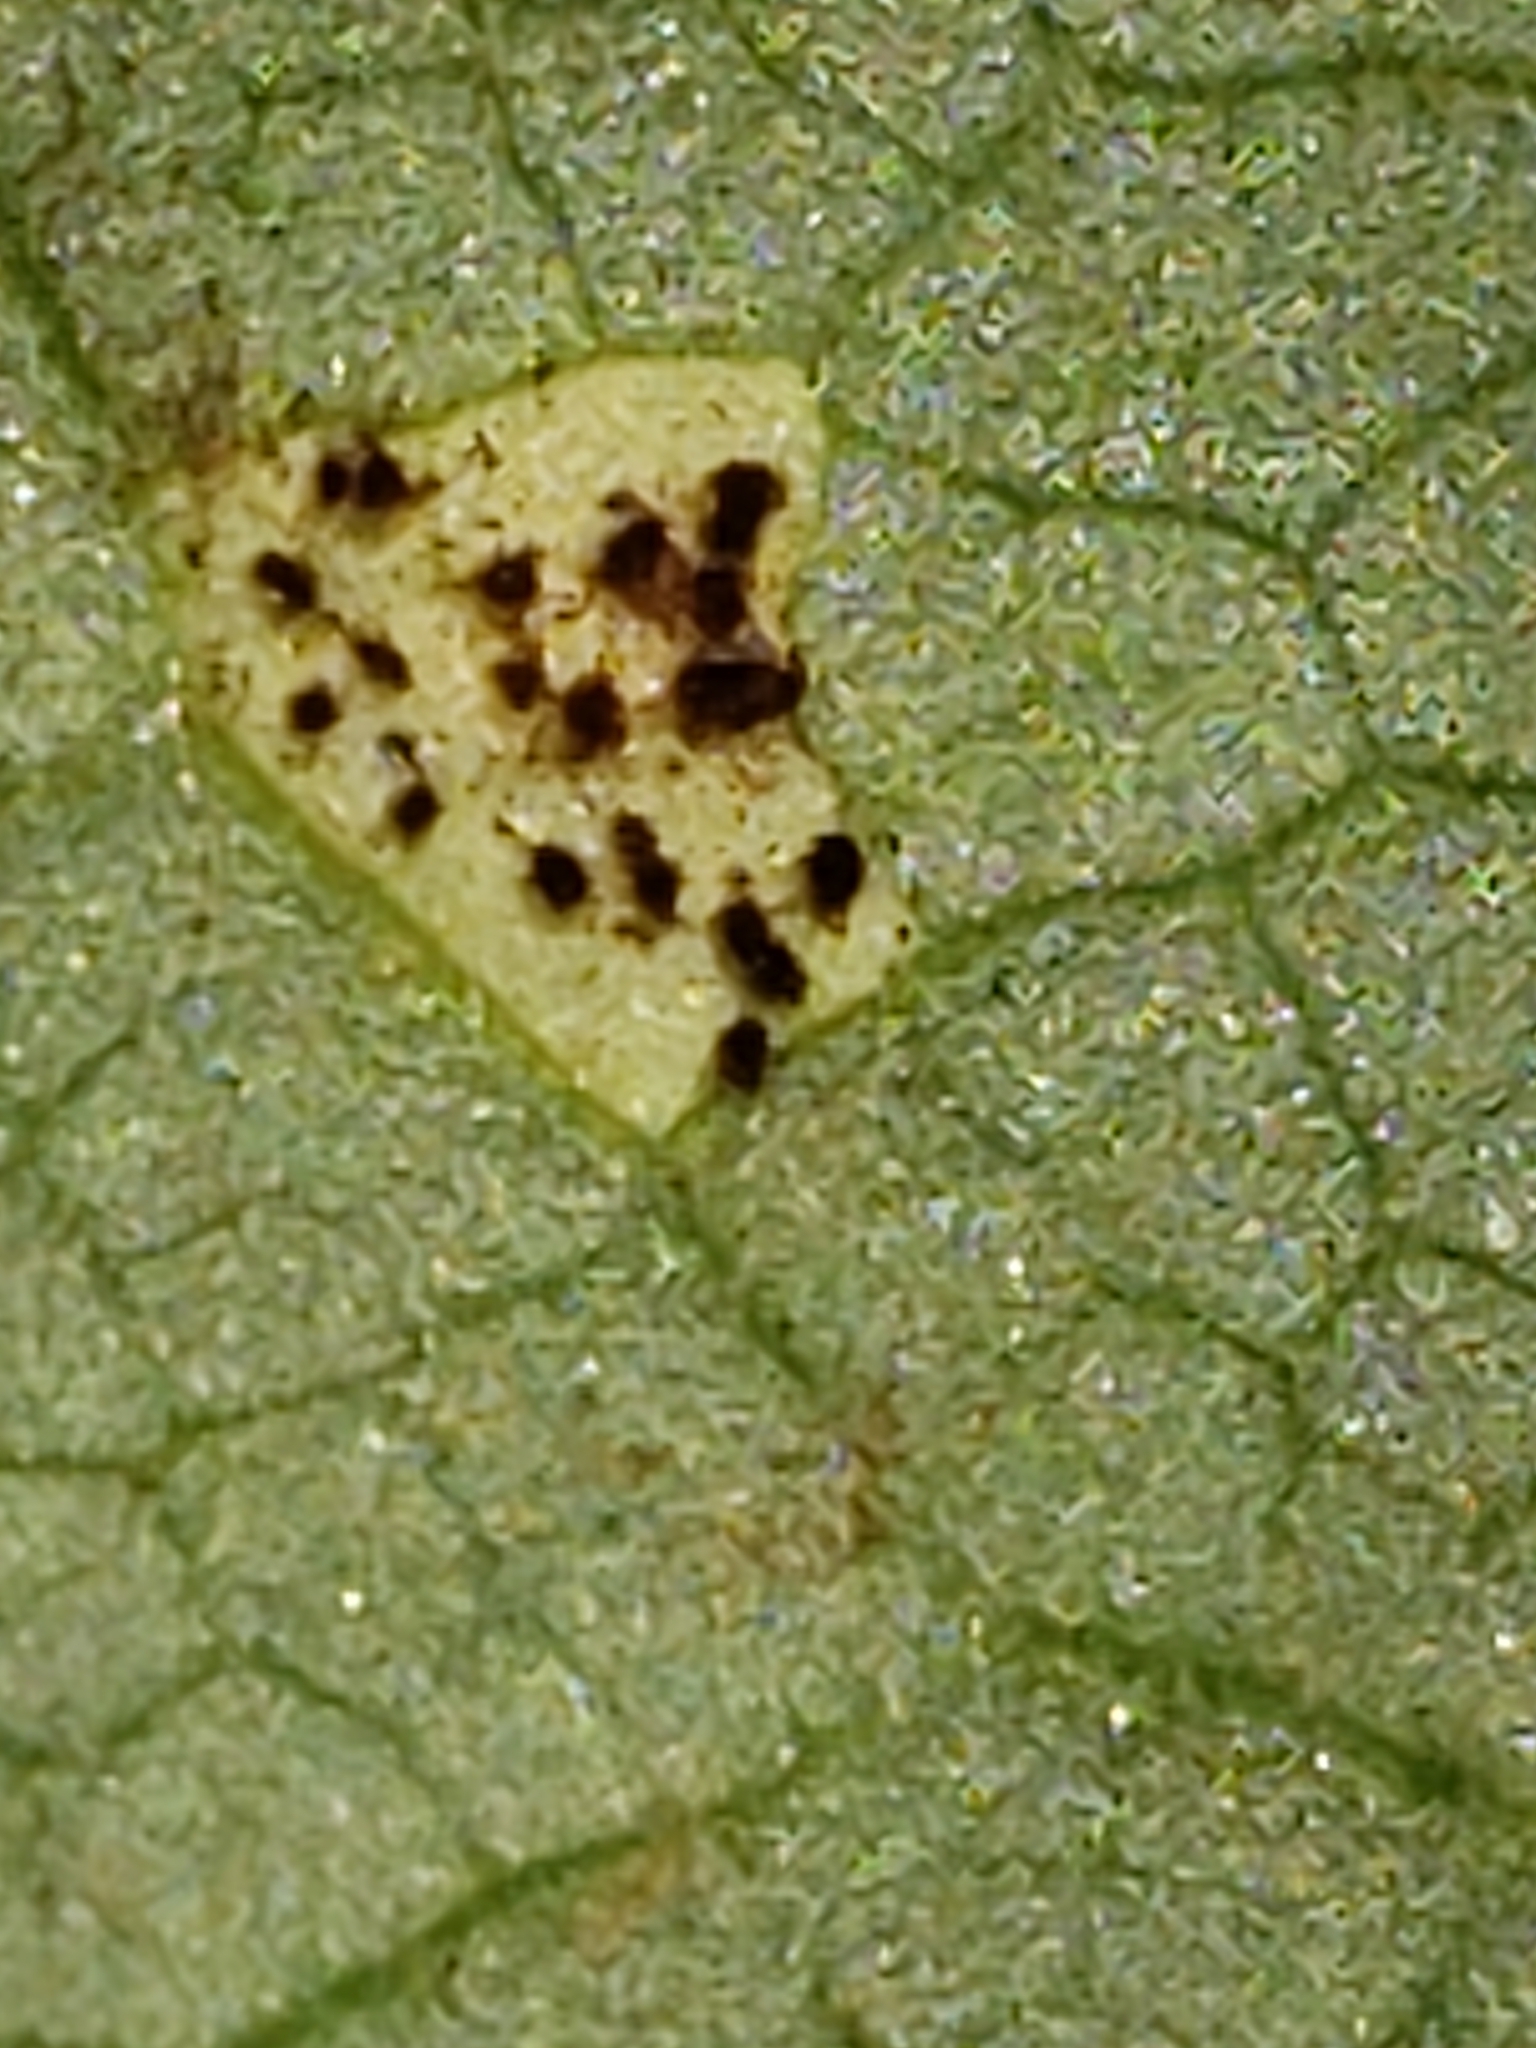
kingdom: Fungi
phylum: Basidiomycota
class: Pucciniomycetes
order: Pucciniales
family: Pucciniaceae
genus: Puccinia
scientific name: Puccinia podophylli
